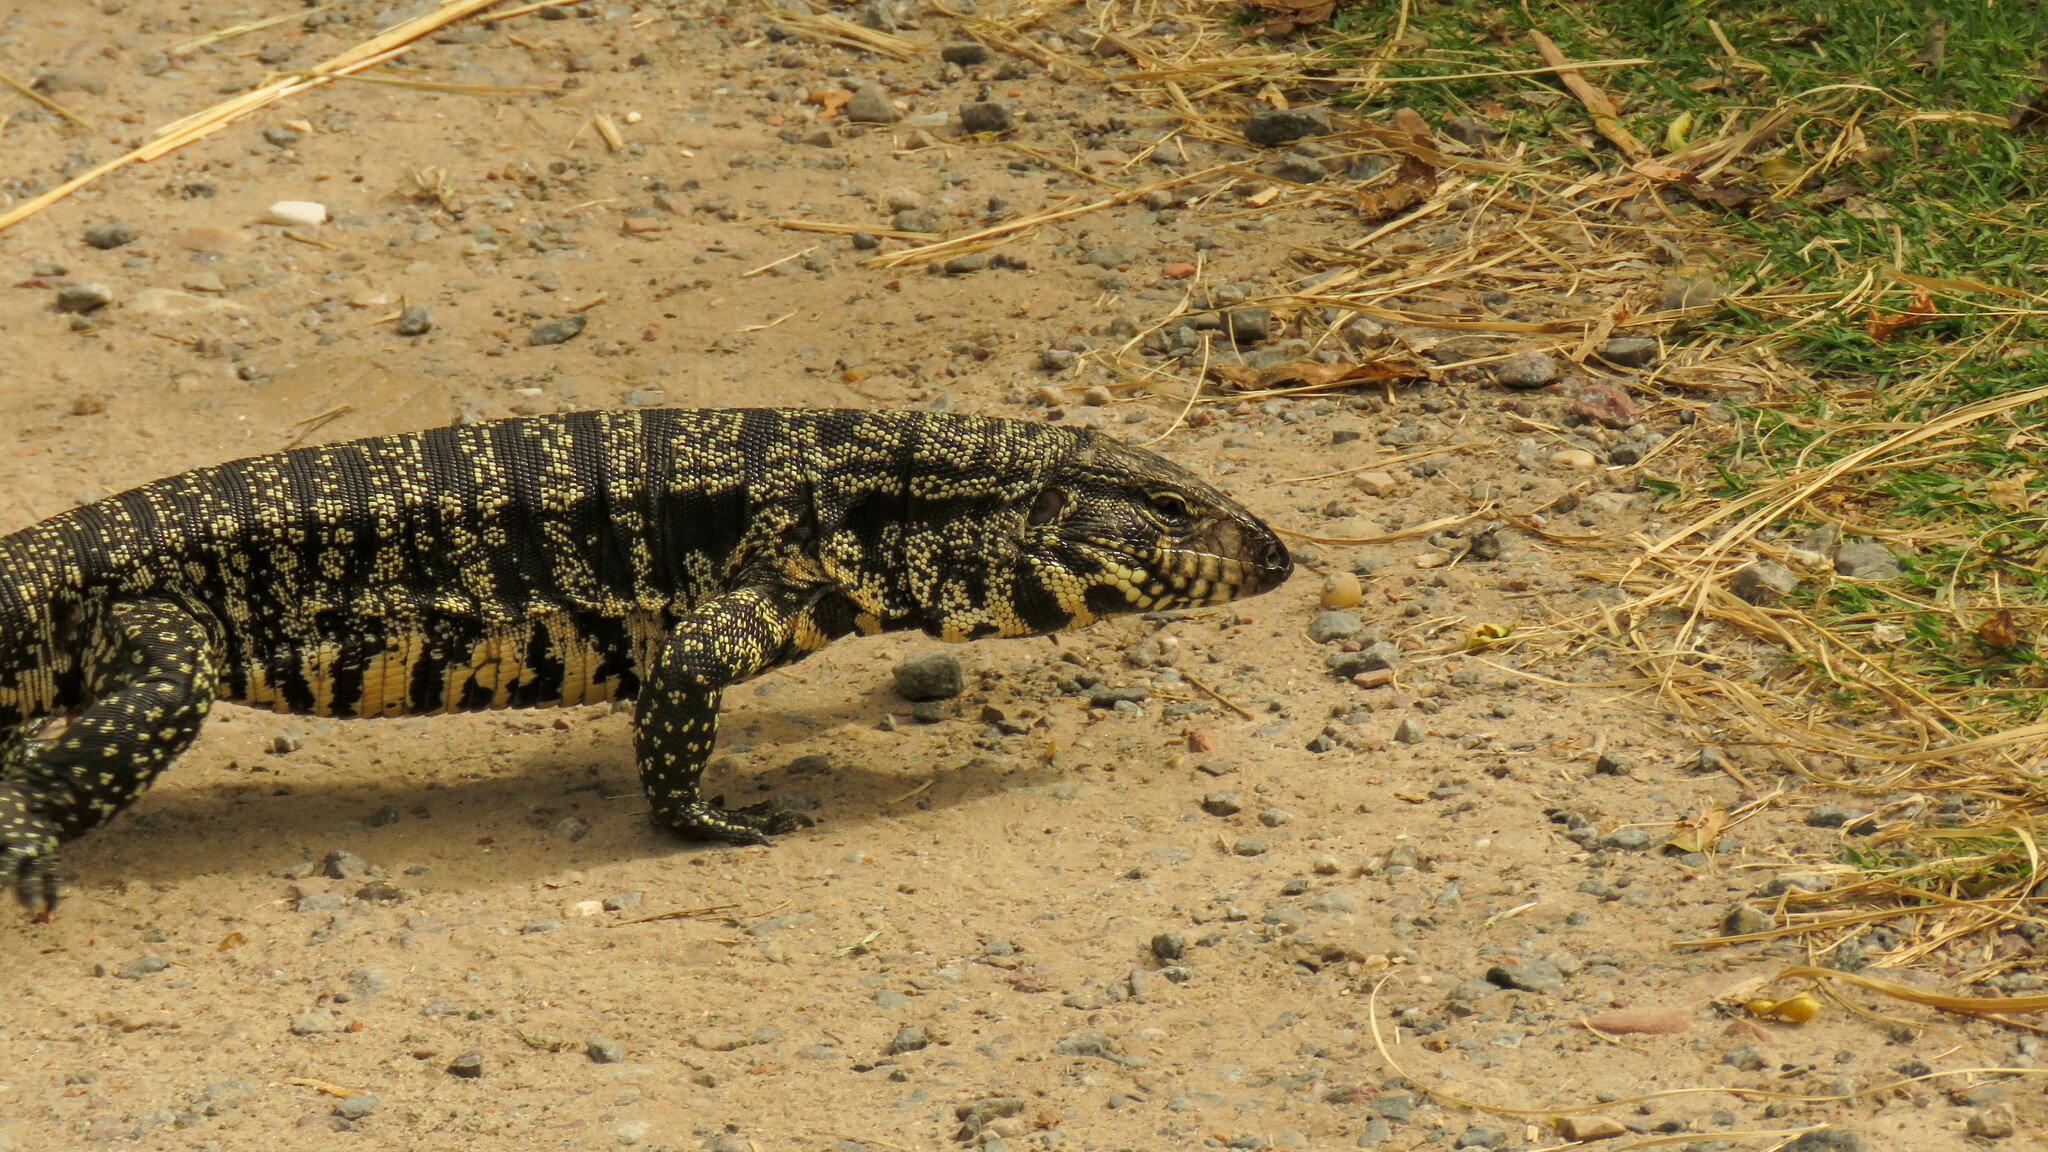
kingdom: Animalia
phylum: Chordata
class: Squamata
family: Teiidae
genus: Salvator
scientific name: Salvator merianae
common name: Argentine black and white tegu
